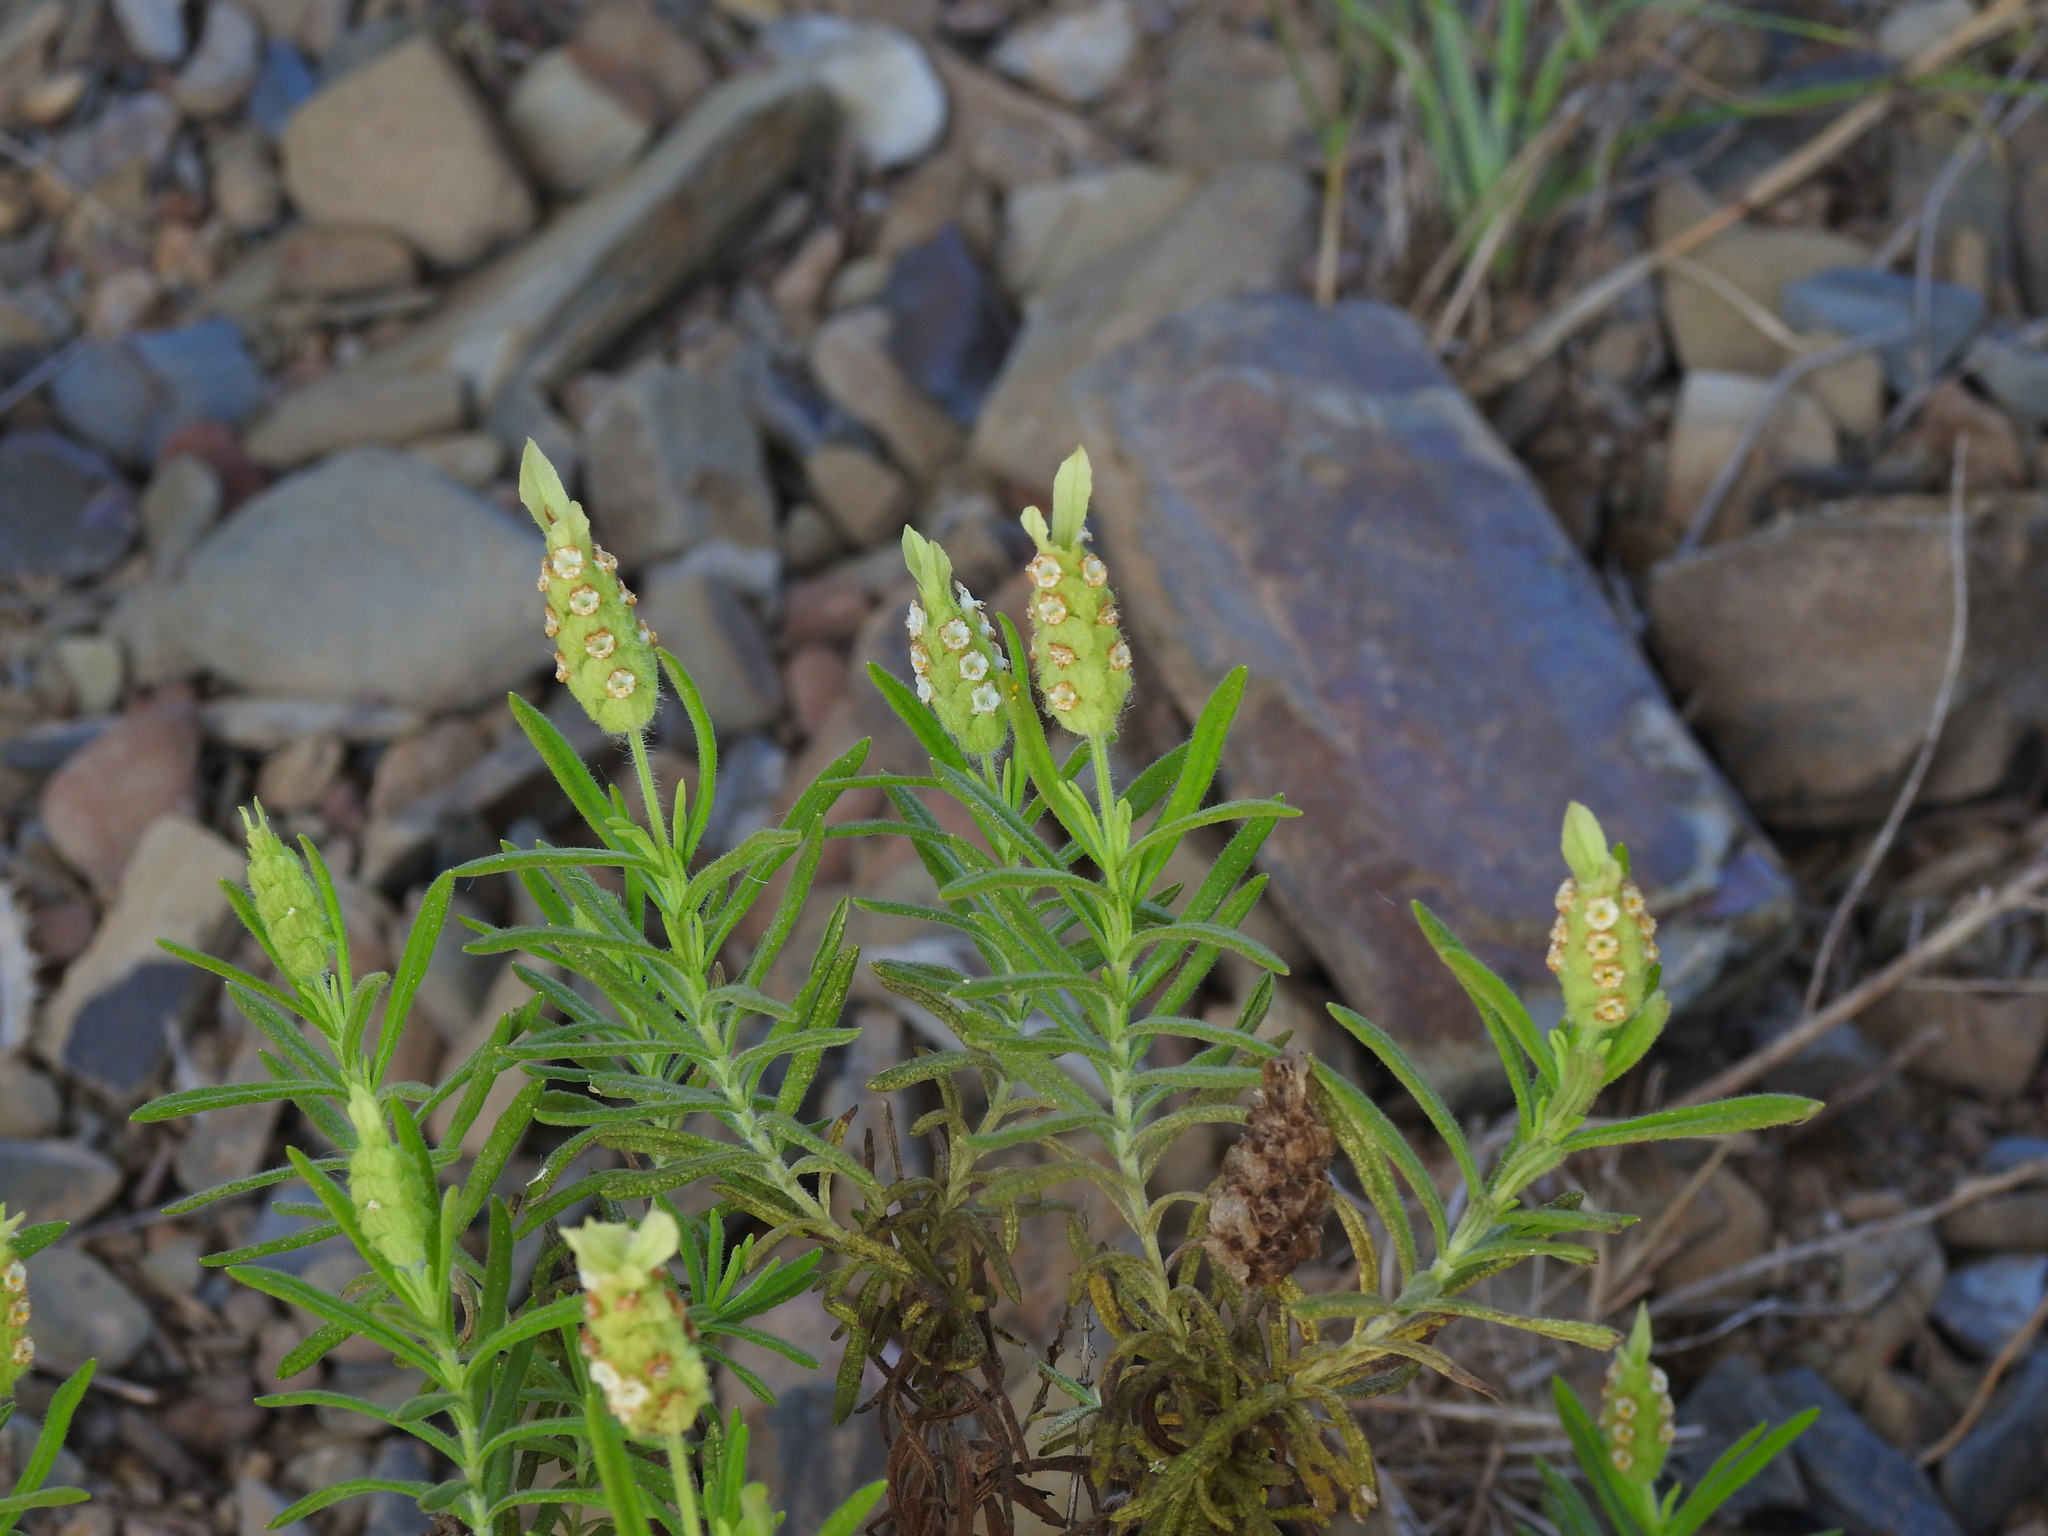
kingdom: Plantae
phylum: Tracheophyta
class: Magnoliopsida
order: Lamiales
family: Lamiaceae
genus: Lavandula
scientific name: Lavandula viridis
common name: Green spanish lavender
